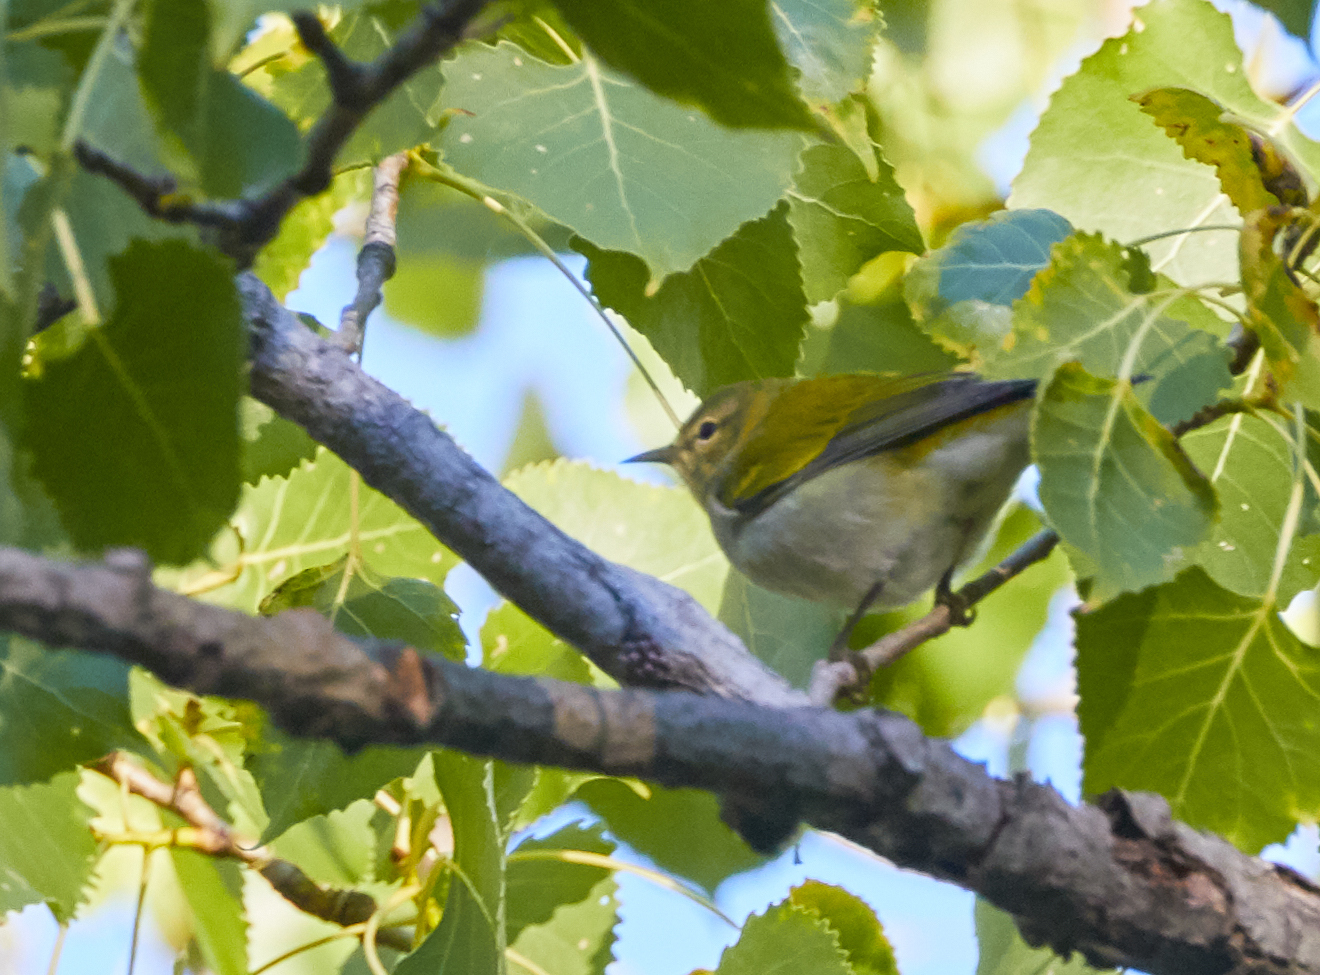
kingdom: Animalia
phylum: Chordata
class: Aves
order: Passeriformes
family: Parulidae
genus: Leiothlypis
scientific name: Leiothlypis peregrina
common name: Tennessee warbler
